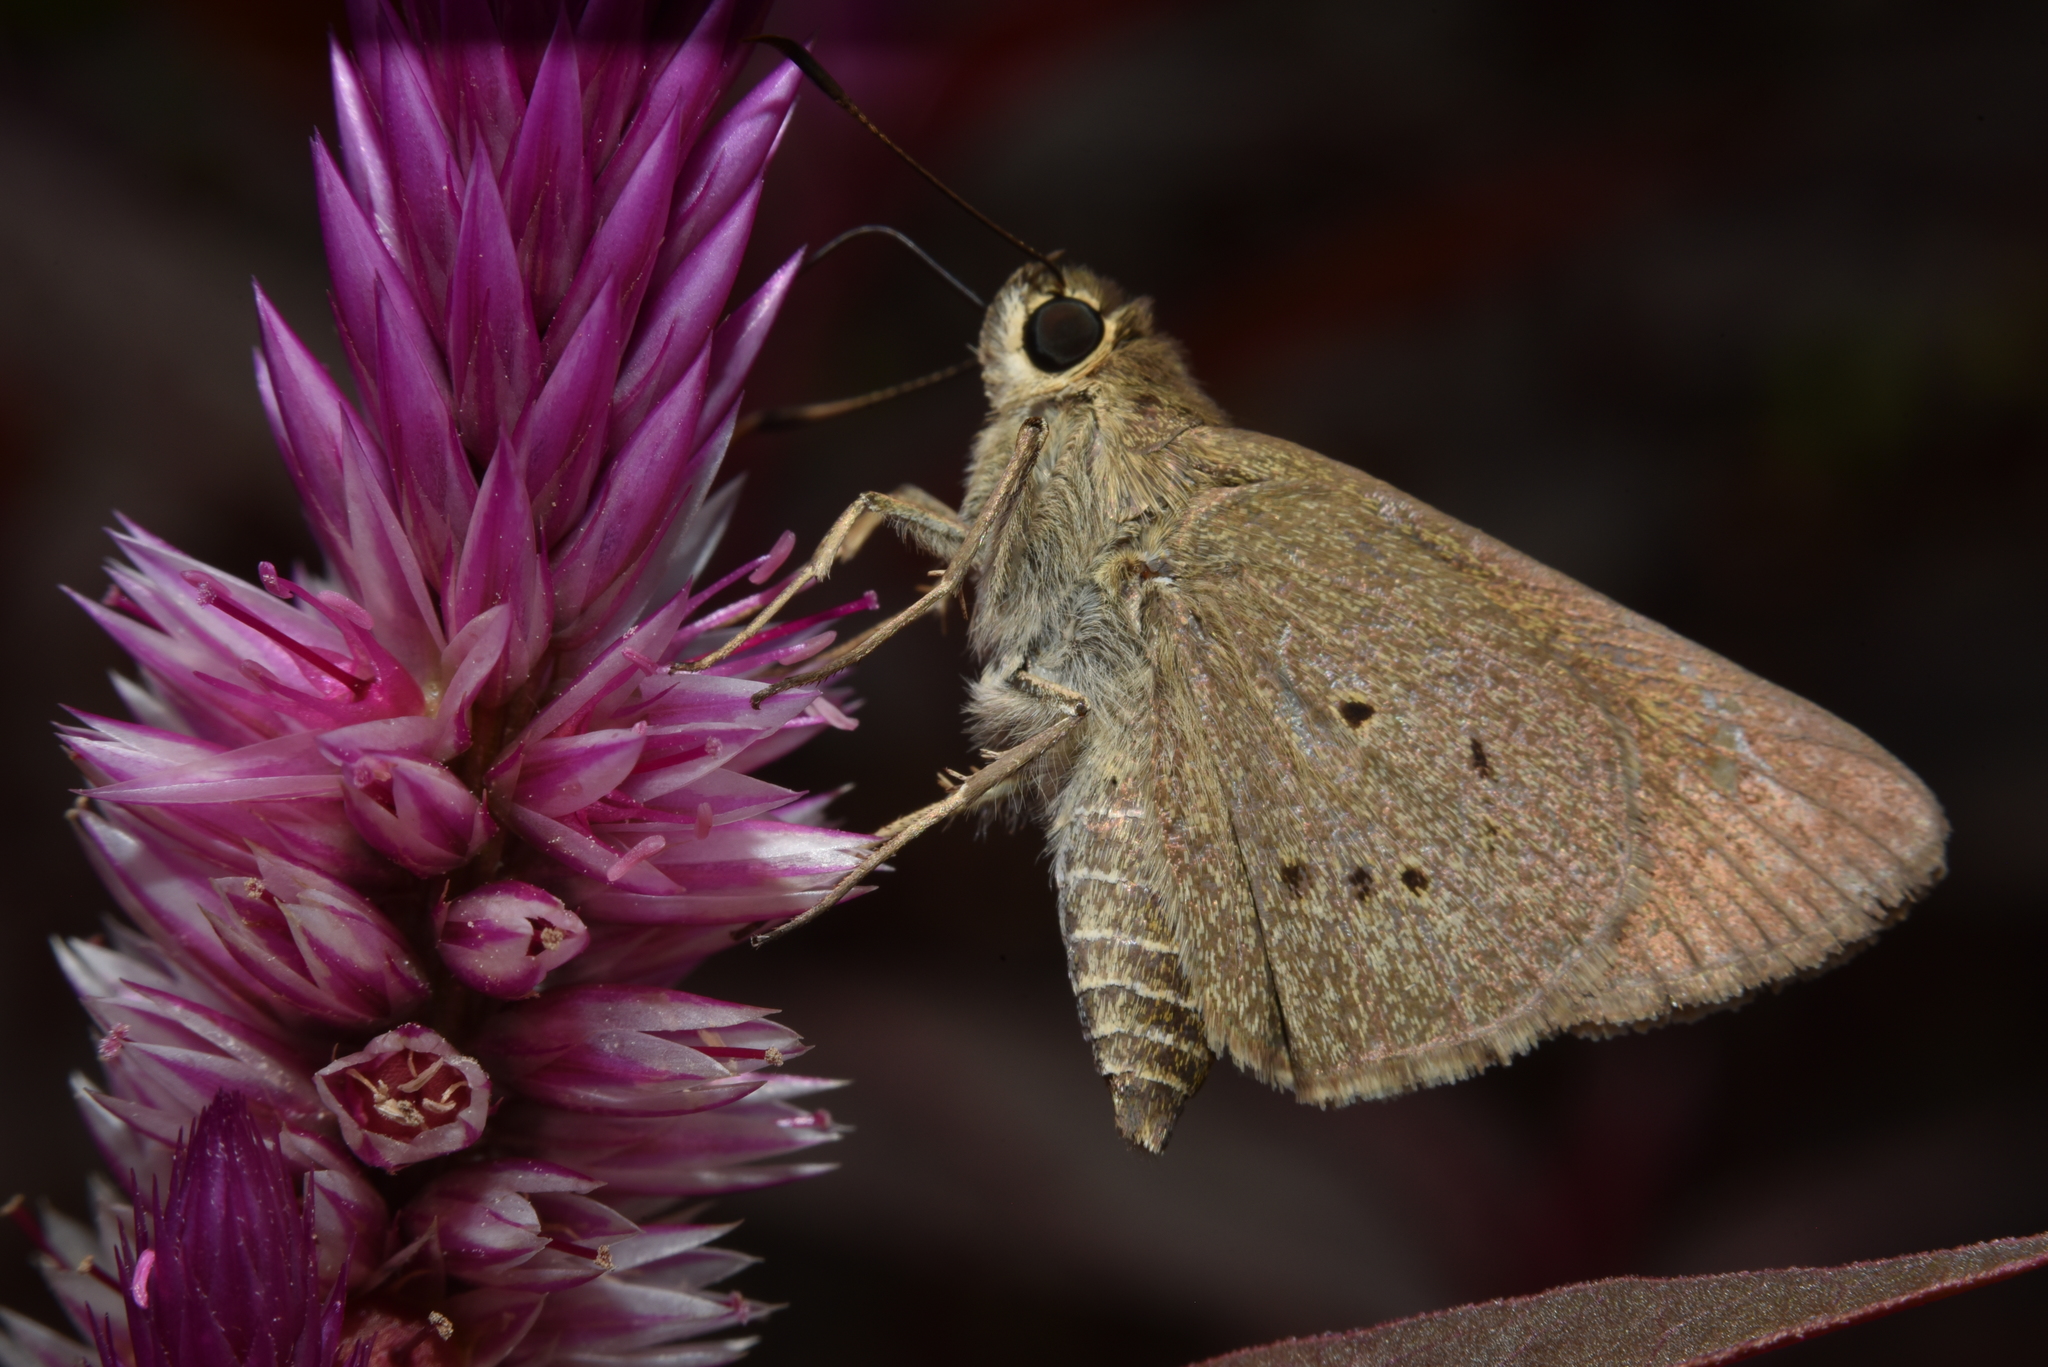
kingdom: Animalia
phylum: Arthropoda
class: Insecta
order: Lepidoptera
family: Hesperiidae
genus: Suastus
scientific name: Suastus gremius
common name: Indian palm bob
